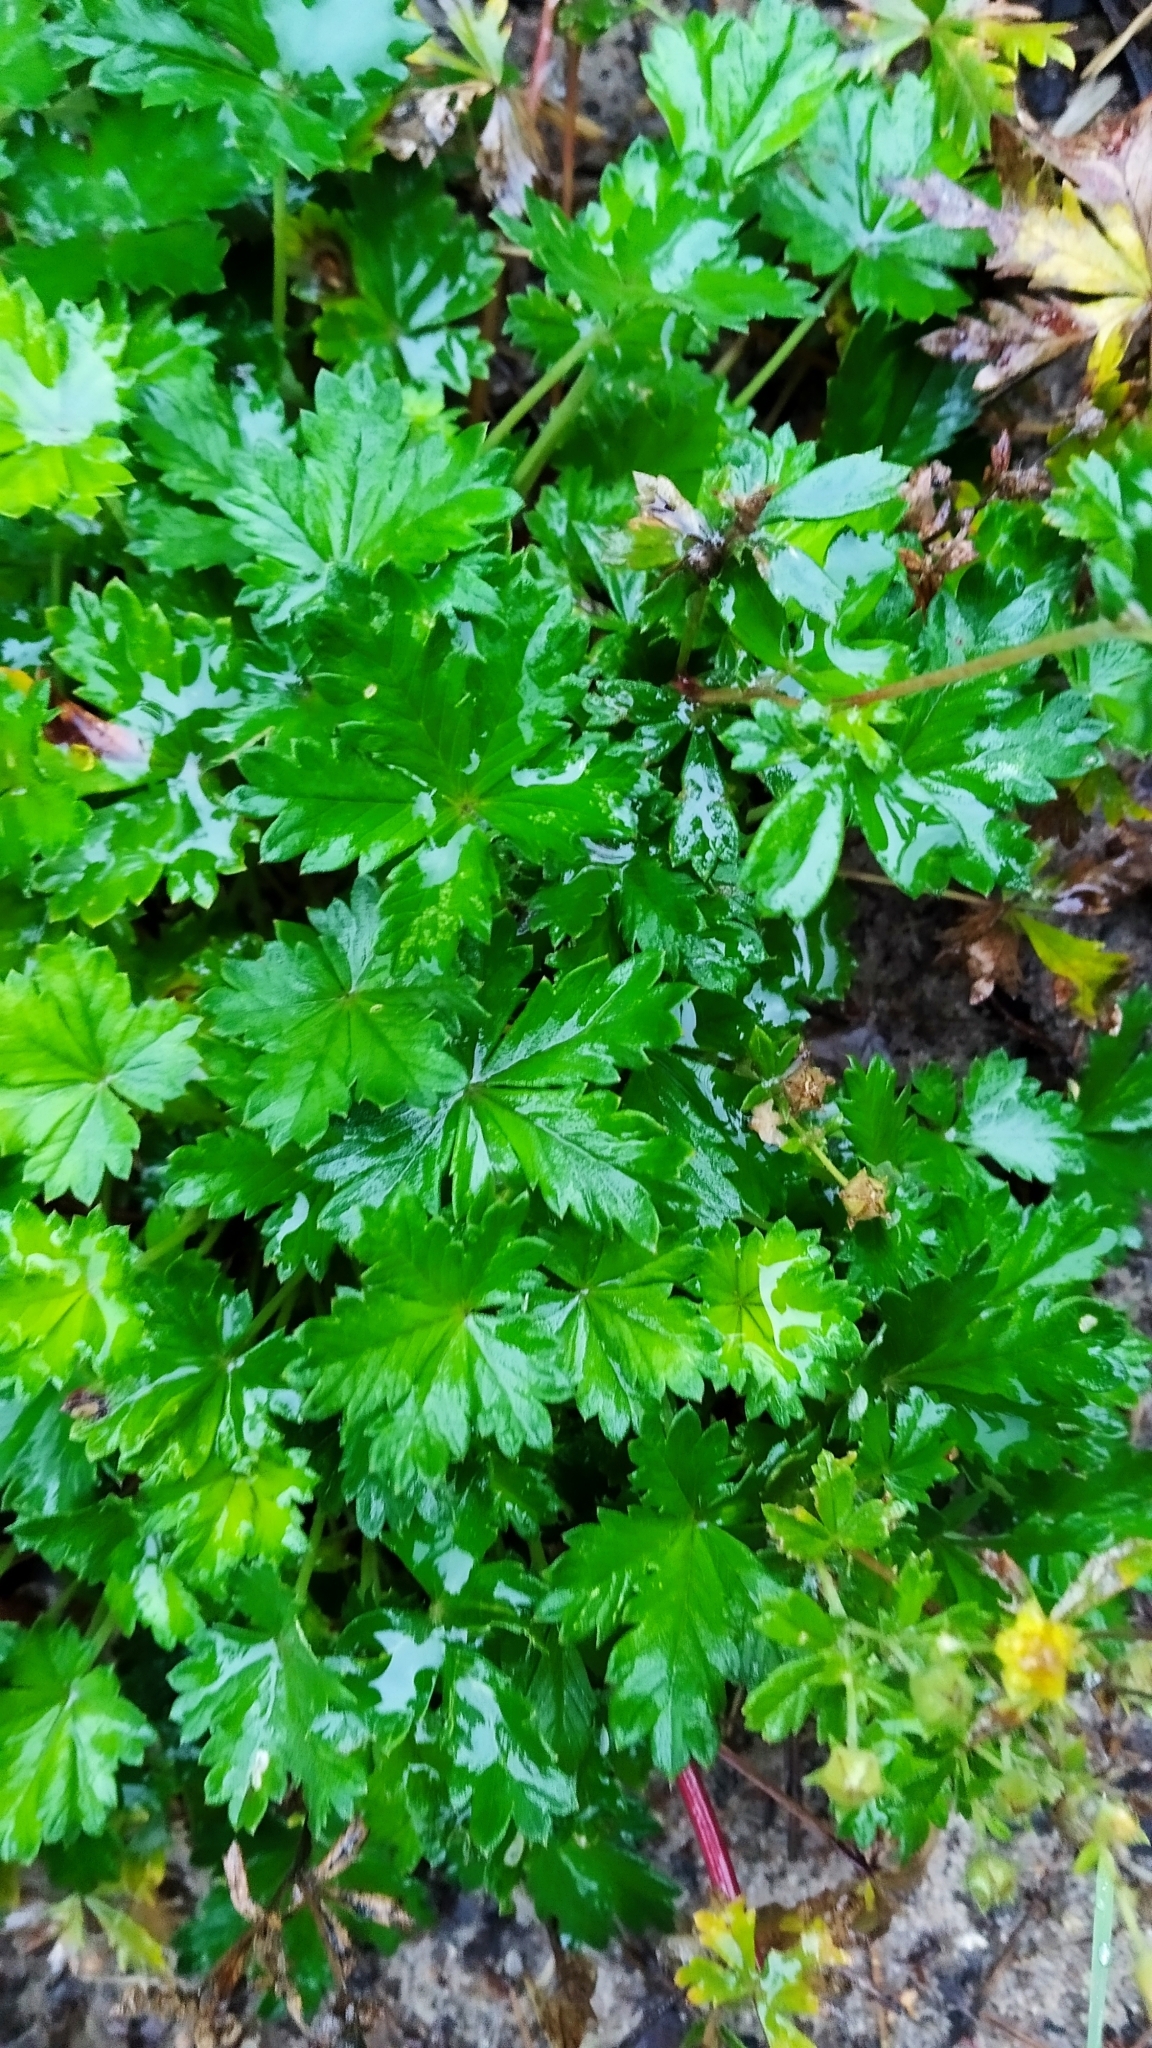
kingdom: Plantae
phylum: Tracheophyta
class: Magnoliopsida
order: Rosales
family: Rosaceae
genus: Potentilla
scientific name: Potentilla argentea
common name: Hoary cinquefoil
